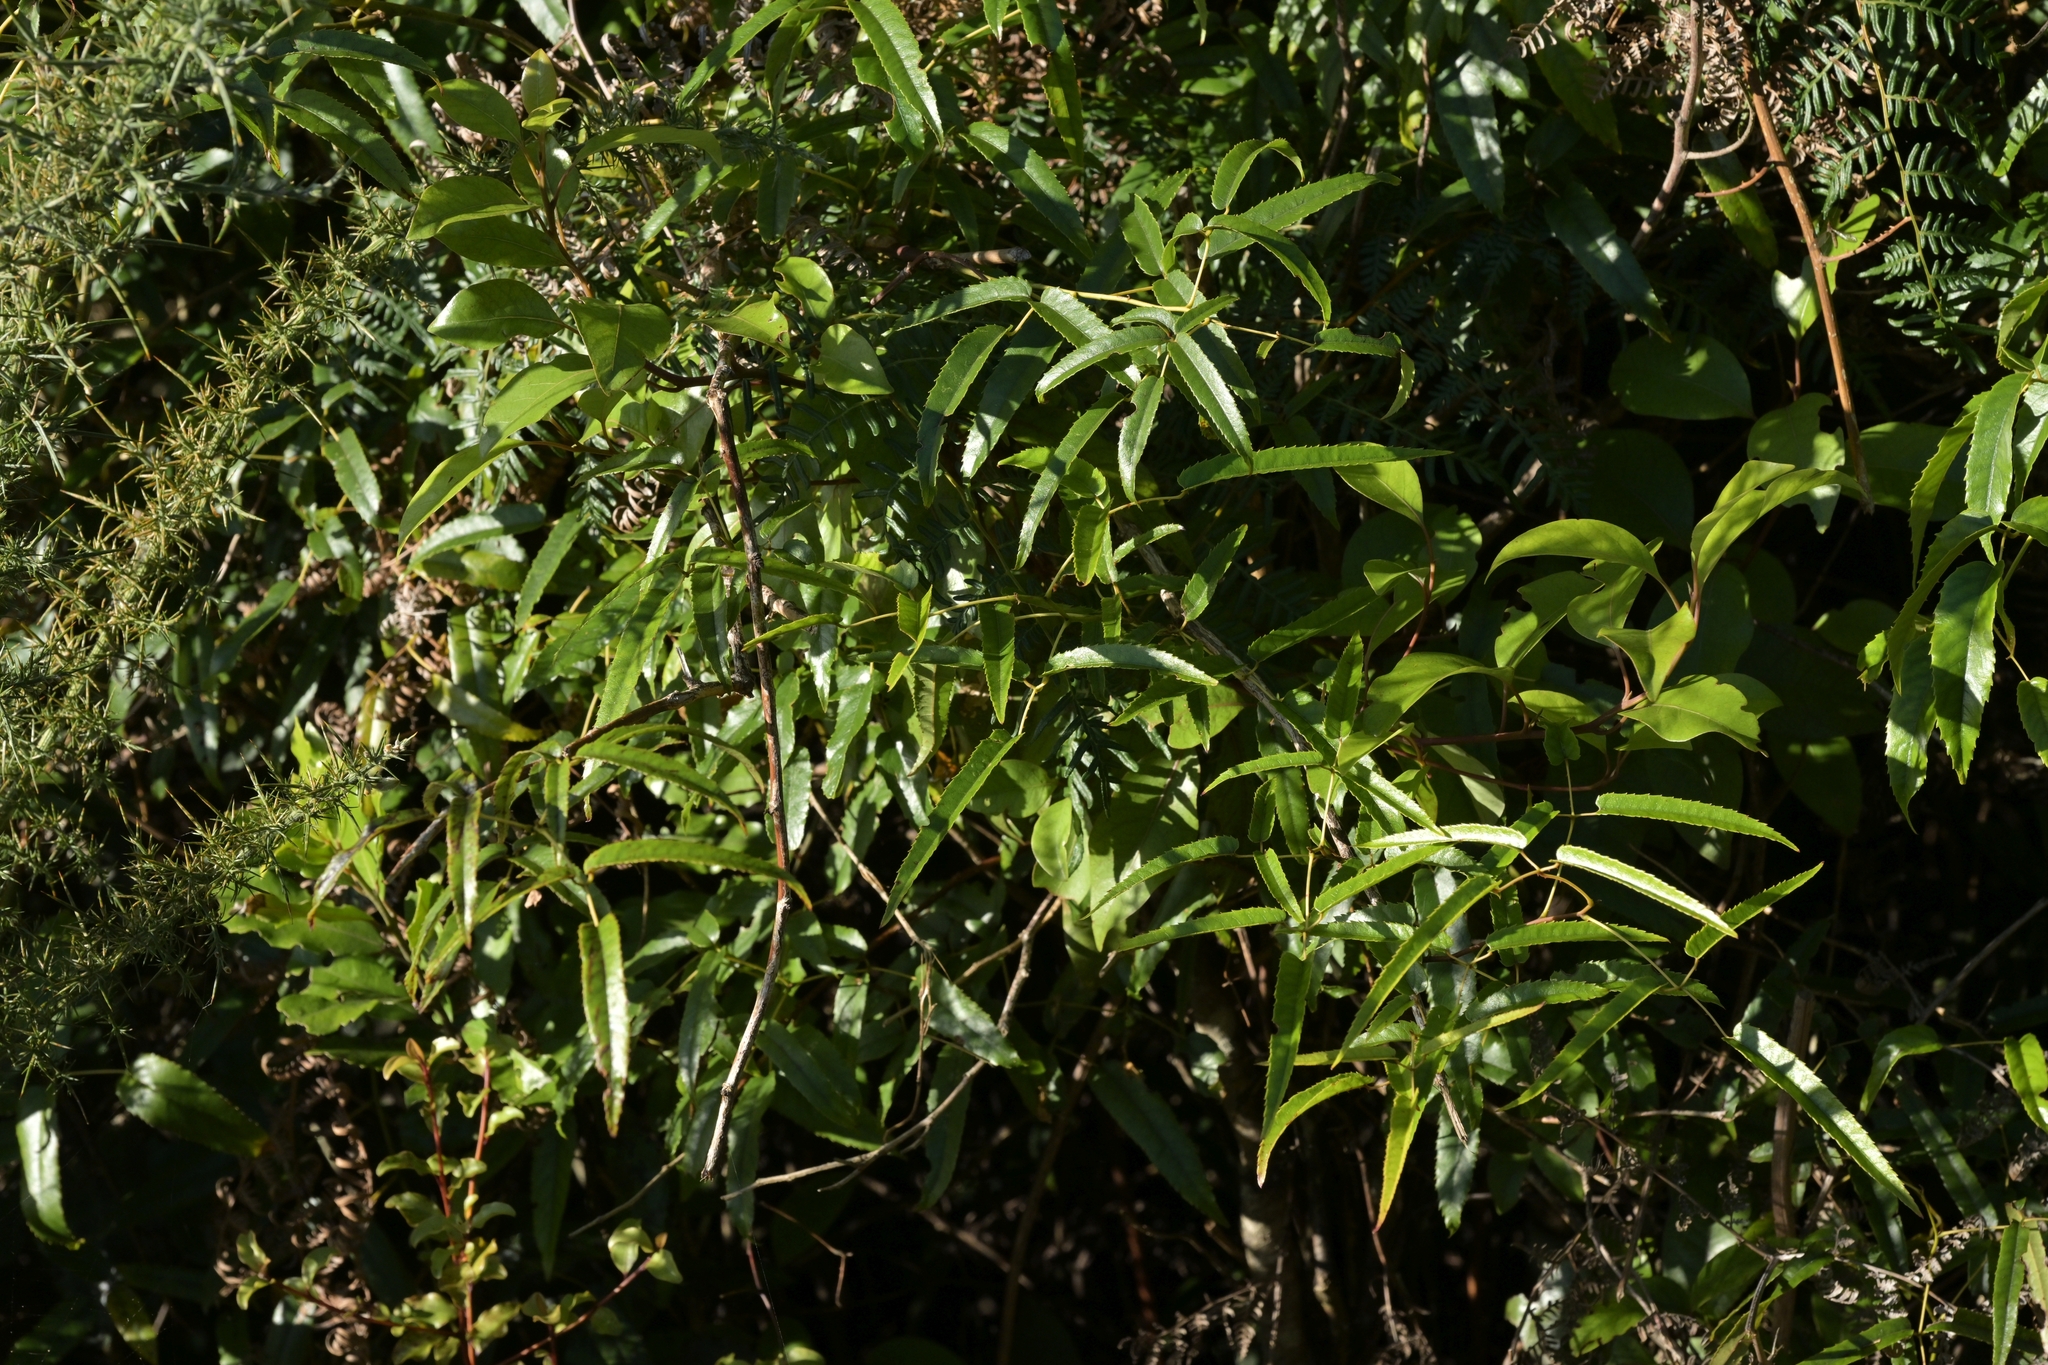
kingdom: Plantae
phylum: Tracheophyta
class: Magnoliopsida
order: Rosales
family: Rosaceae
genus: Rubus
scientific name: Rubus cissoides
